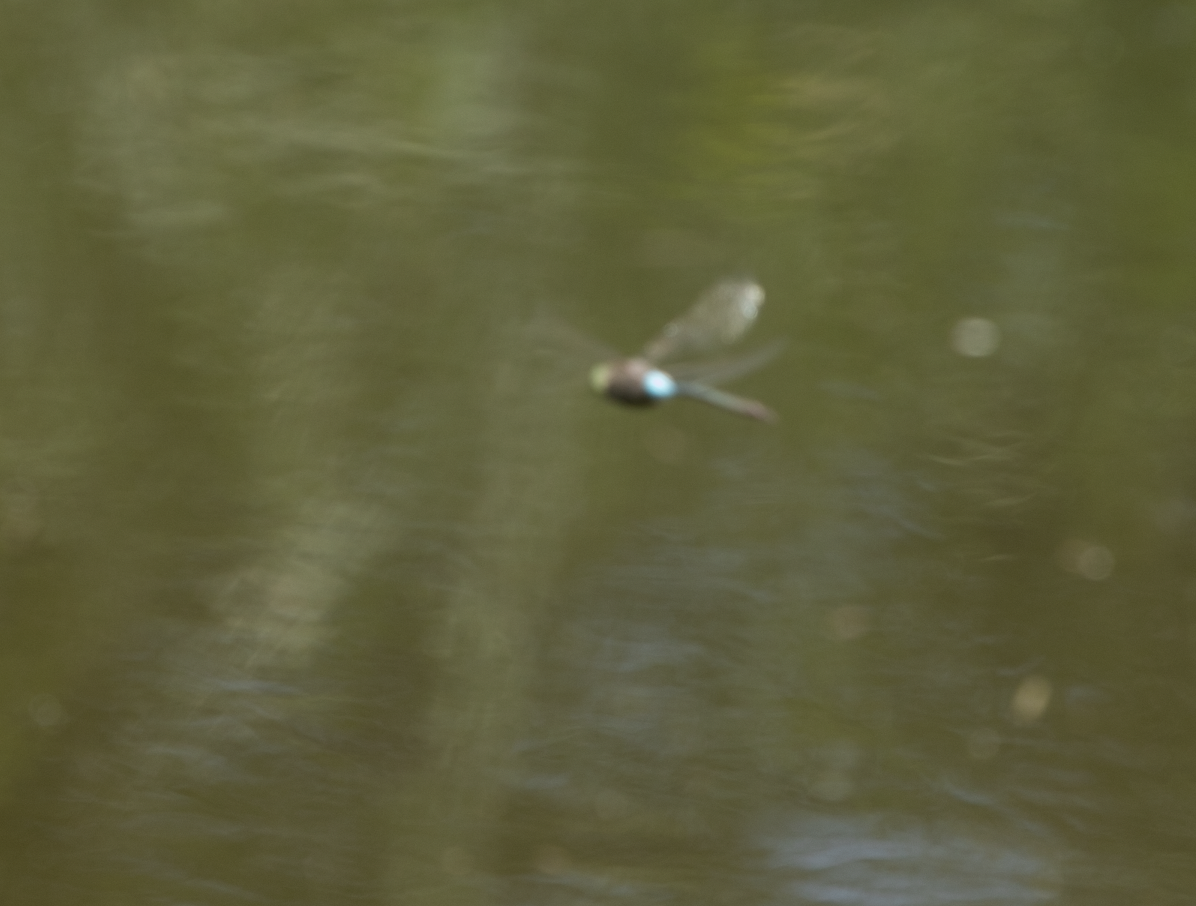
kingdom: Animalia
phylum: Arthropoda
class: Insecta
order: Odonata
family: Aeshnidae
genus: Anax
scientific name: Anax parthenope
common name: Lesser emperor
